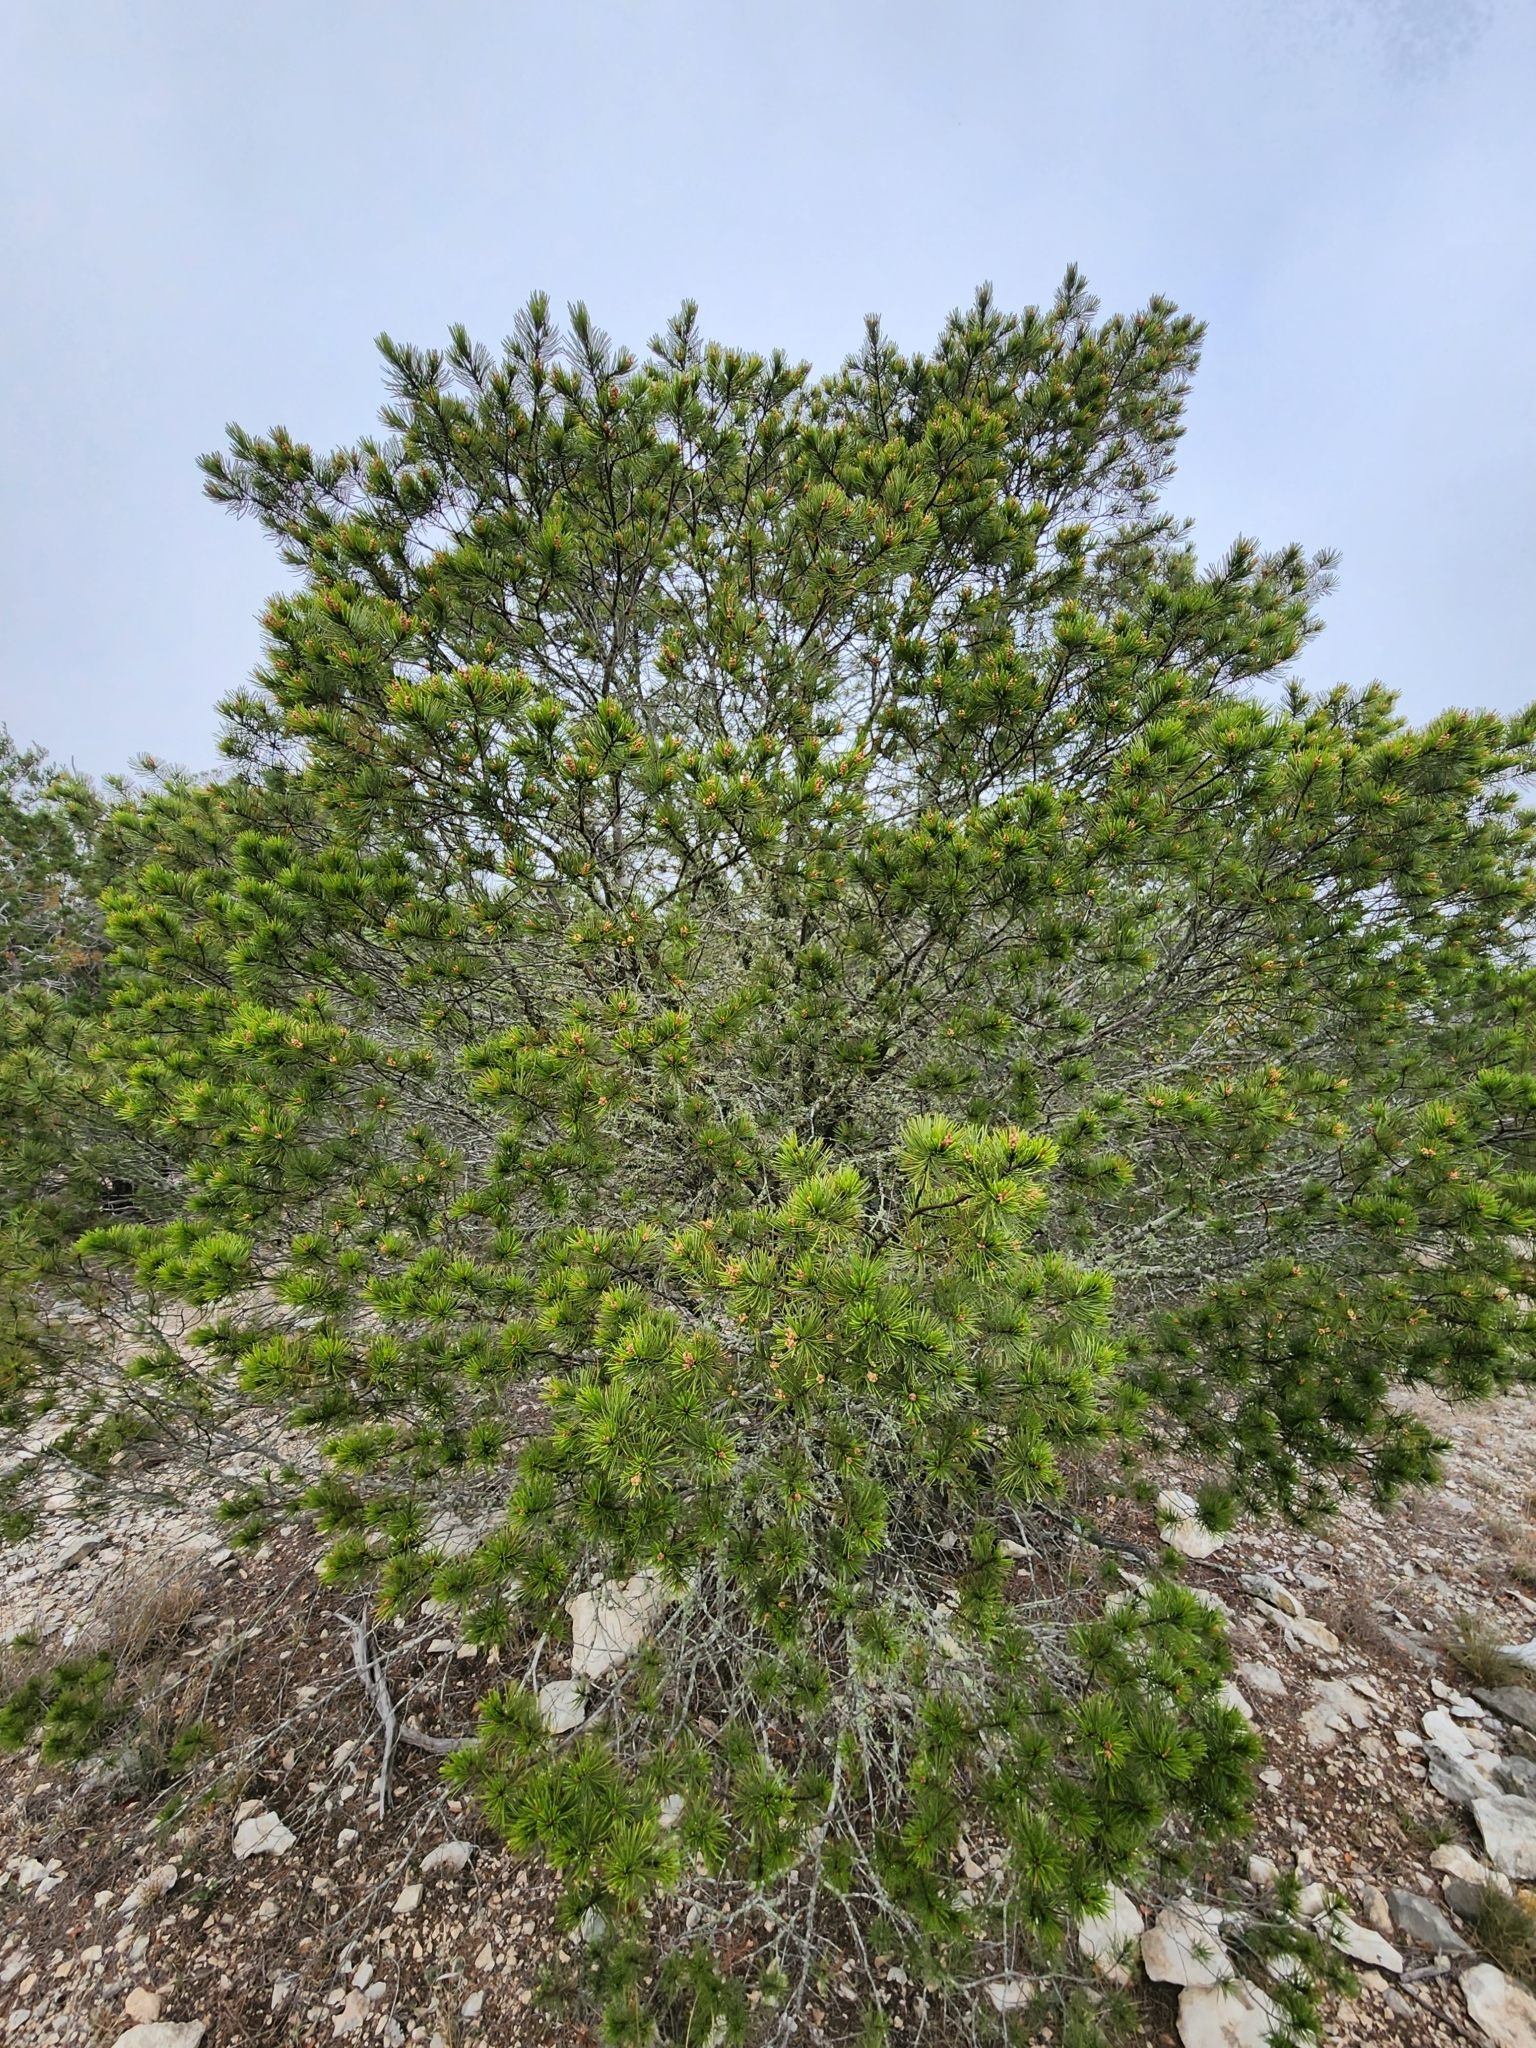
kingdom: Plantae
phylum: Tracheophyta
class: Pinopsida
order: Pinales
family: Pinaceae
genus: Pinus
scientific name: Pinus remota
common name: Nut pine
